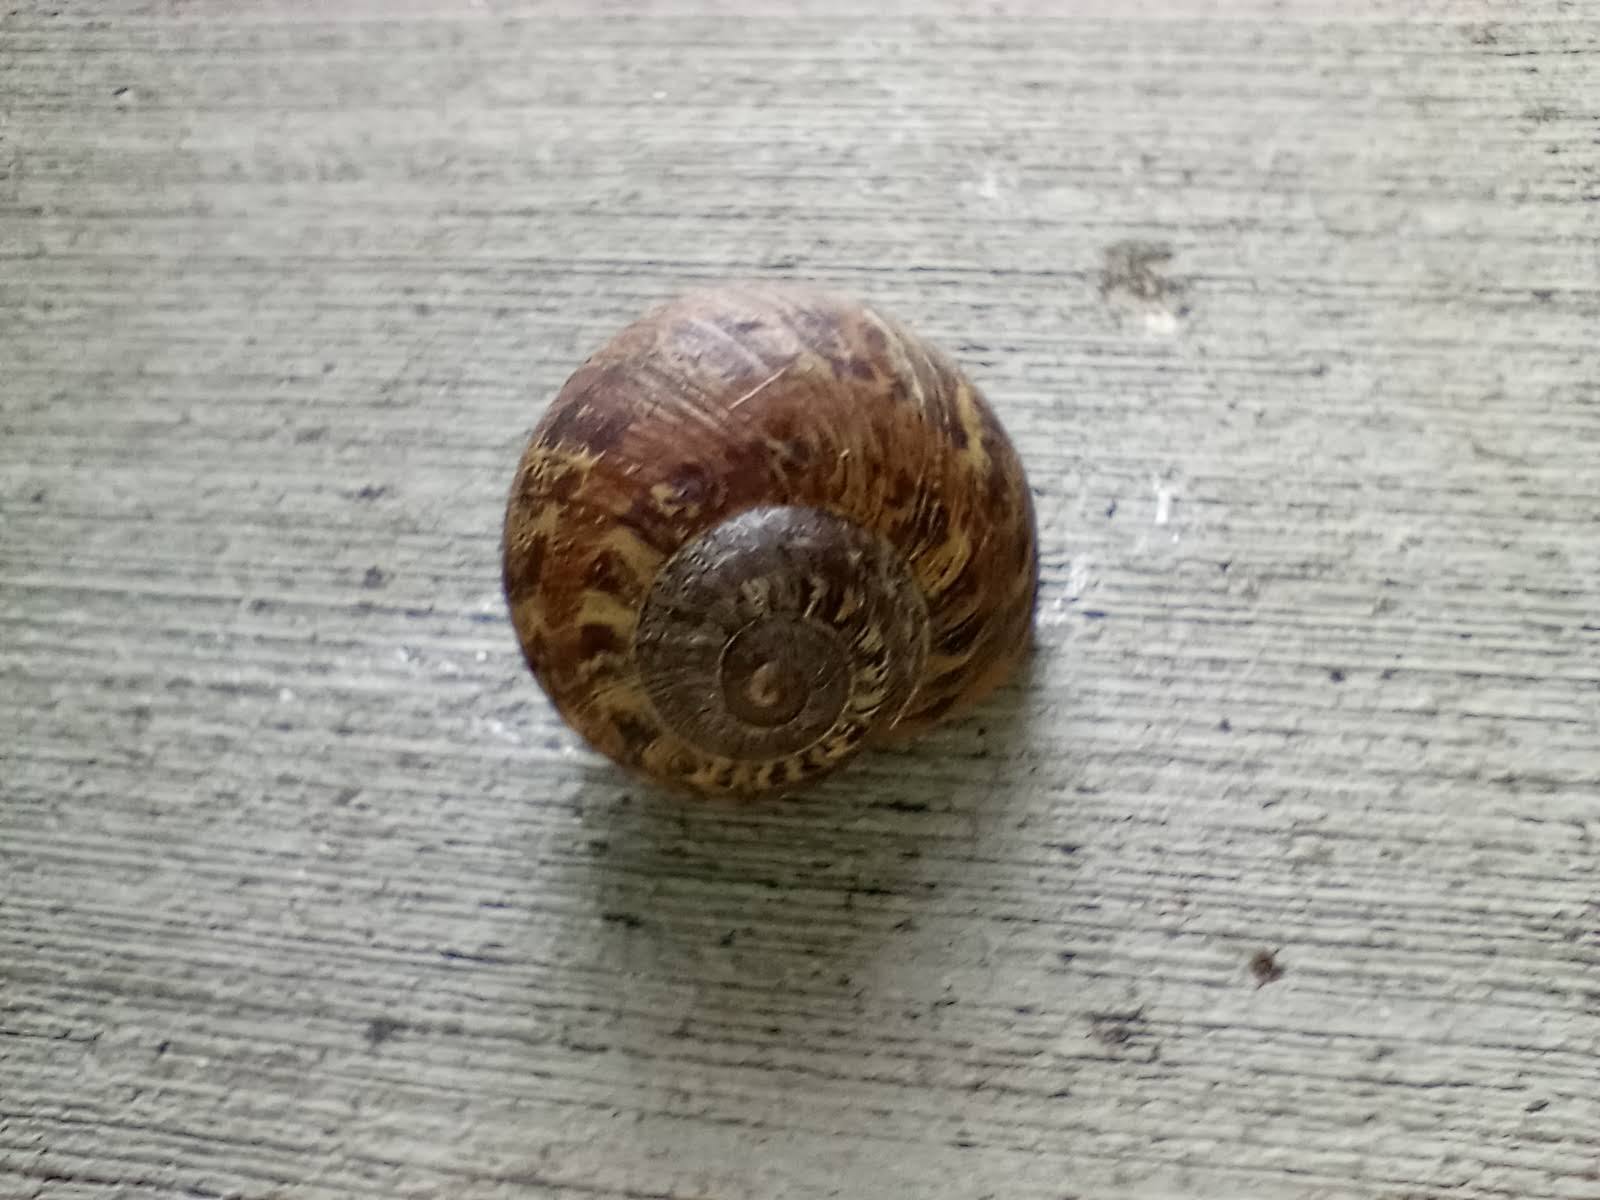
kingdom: Animalia
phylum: Mollusca
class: Gastropoda
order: Stylommatophora
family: Helicidae
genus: Cornu
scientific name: Cornu aspersum
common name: Brown garden snail
